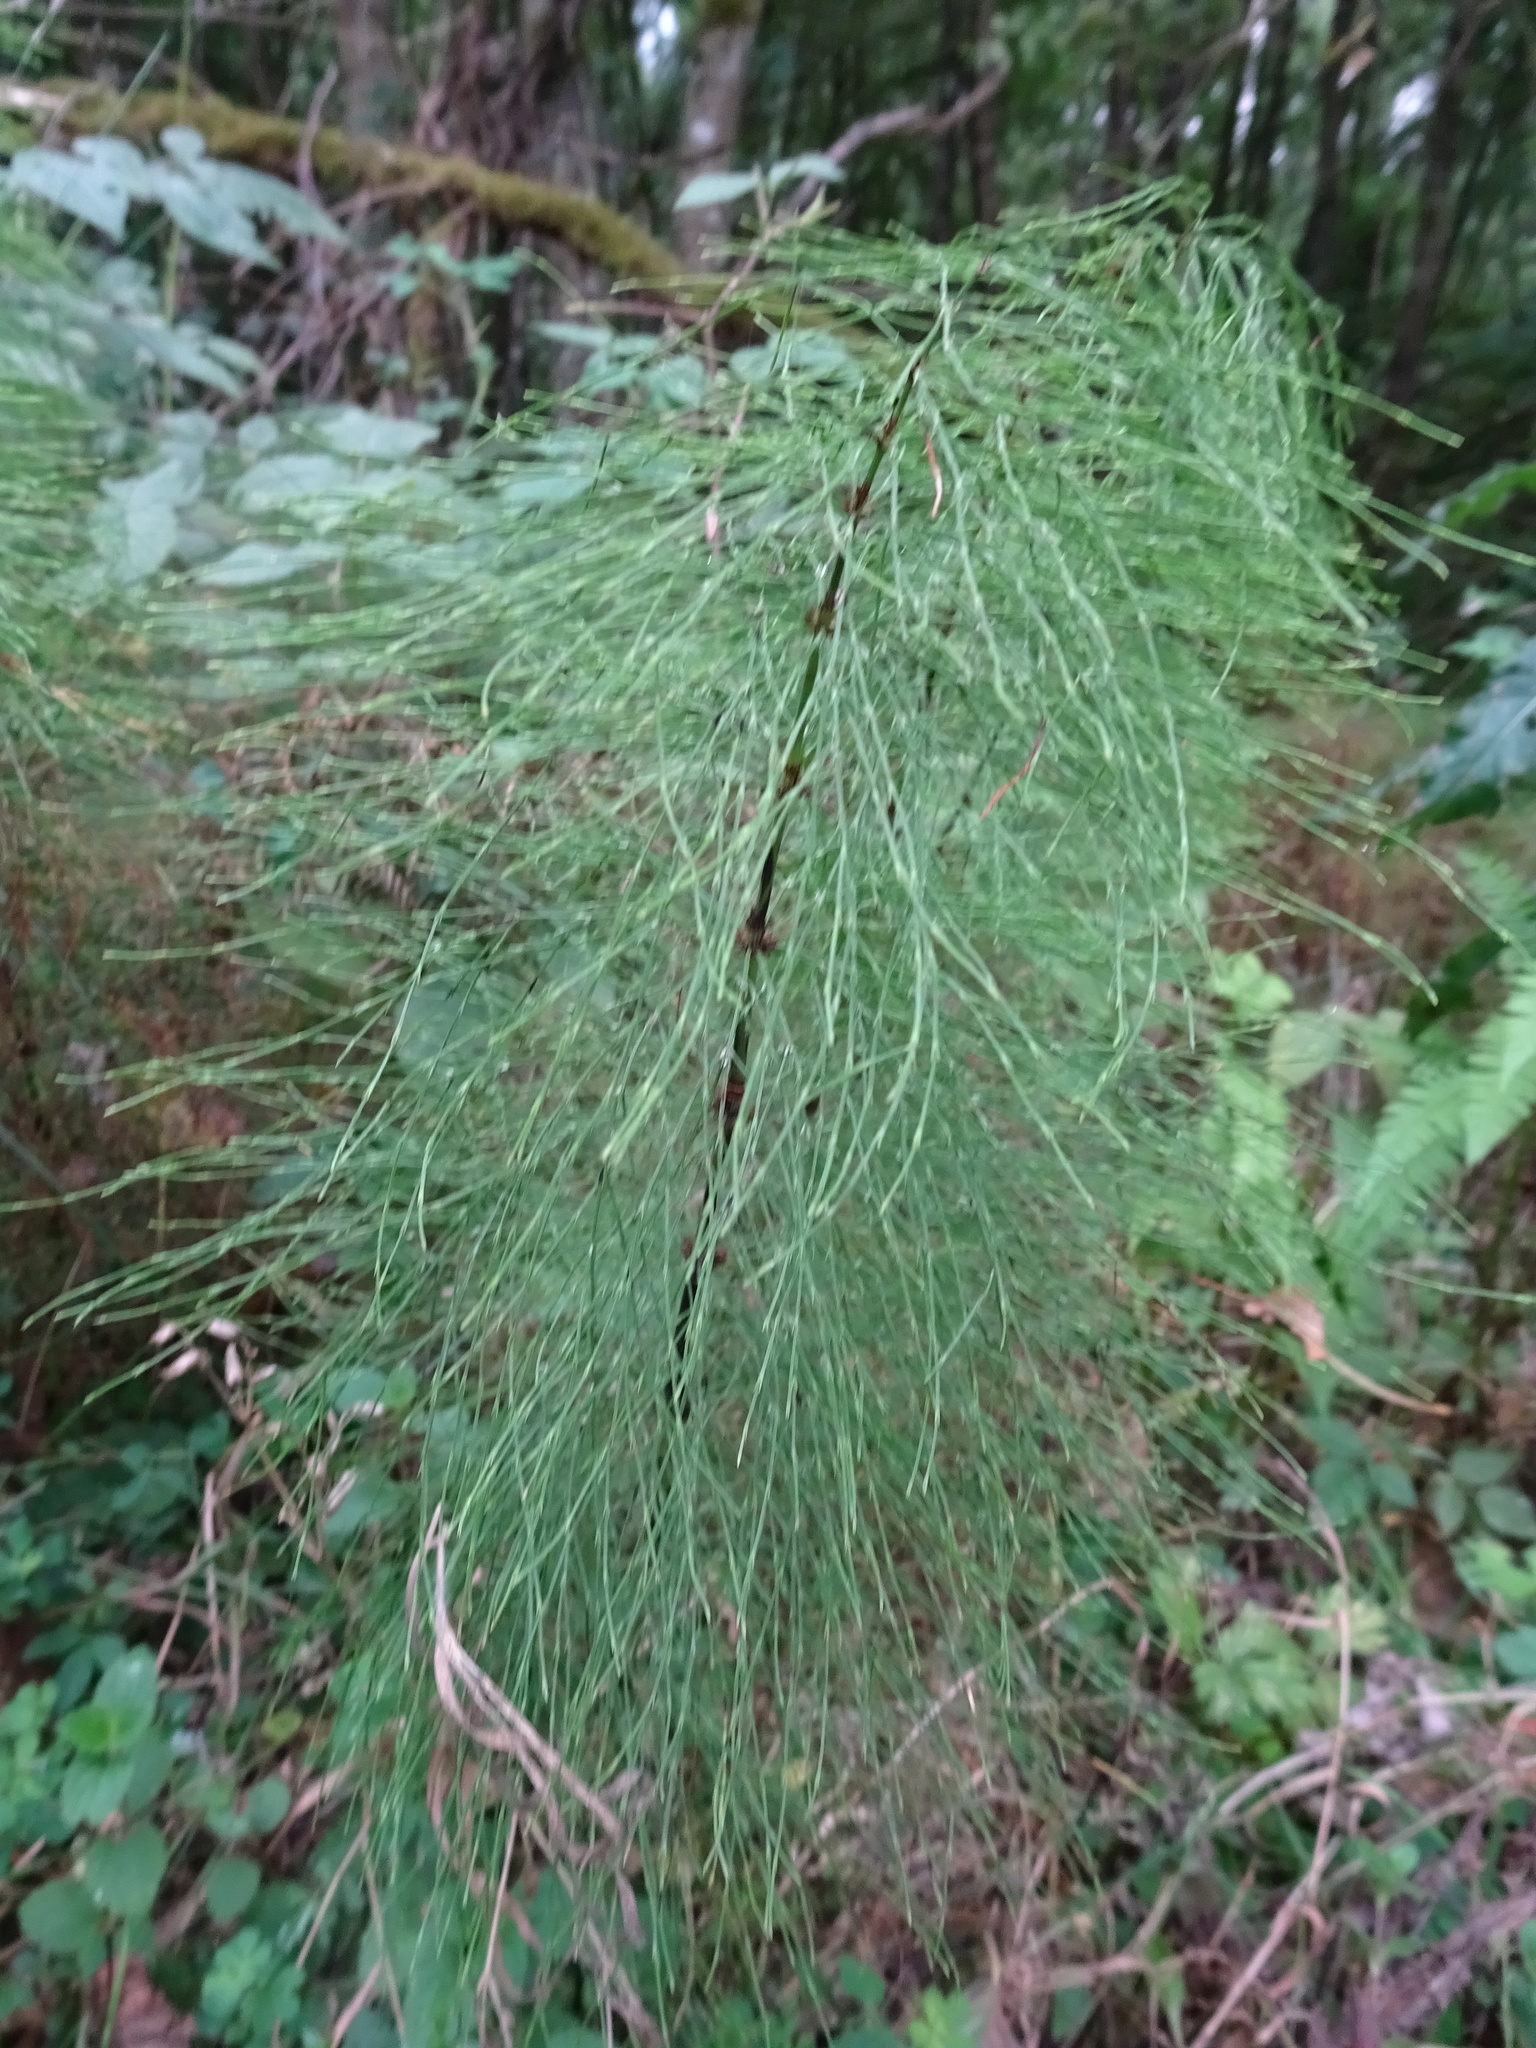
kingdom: Plantae
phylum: Tracheophyta
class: Polypodiopsida
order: Equisetales
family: Equisetaceae
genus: Equisetum
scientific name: Equisetum sylvaticum
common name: Wood horsetail
